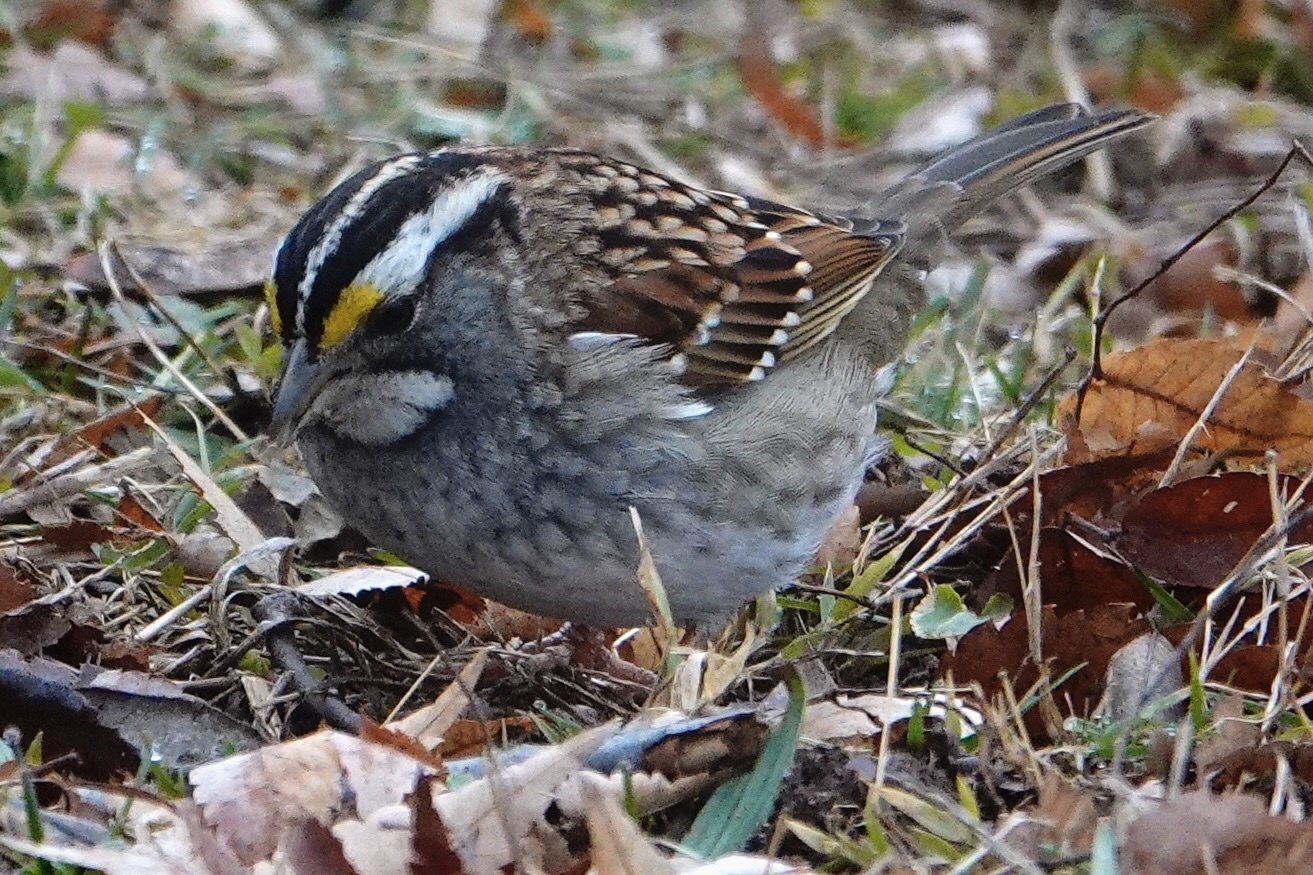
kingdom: Animalia
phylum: Chordata
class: Aves
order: Passeriformes
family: Passerellidae
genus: Zonotrichia
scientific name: Zonotrichia albicollis
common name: White-throated sparrow
